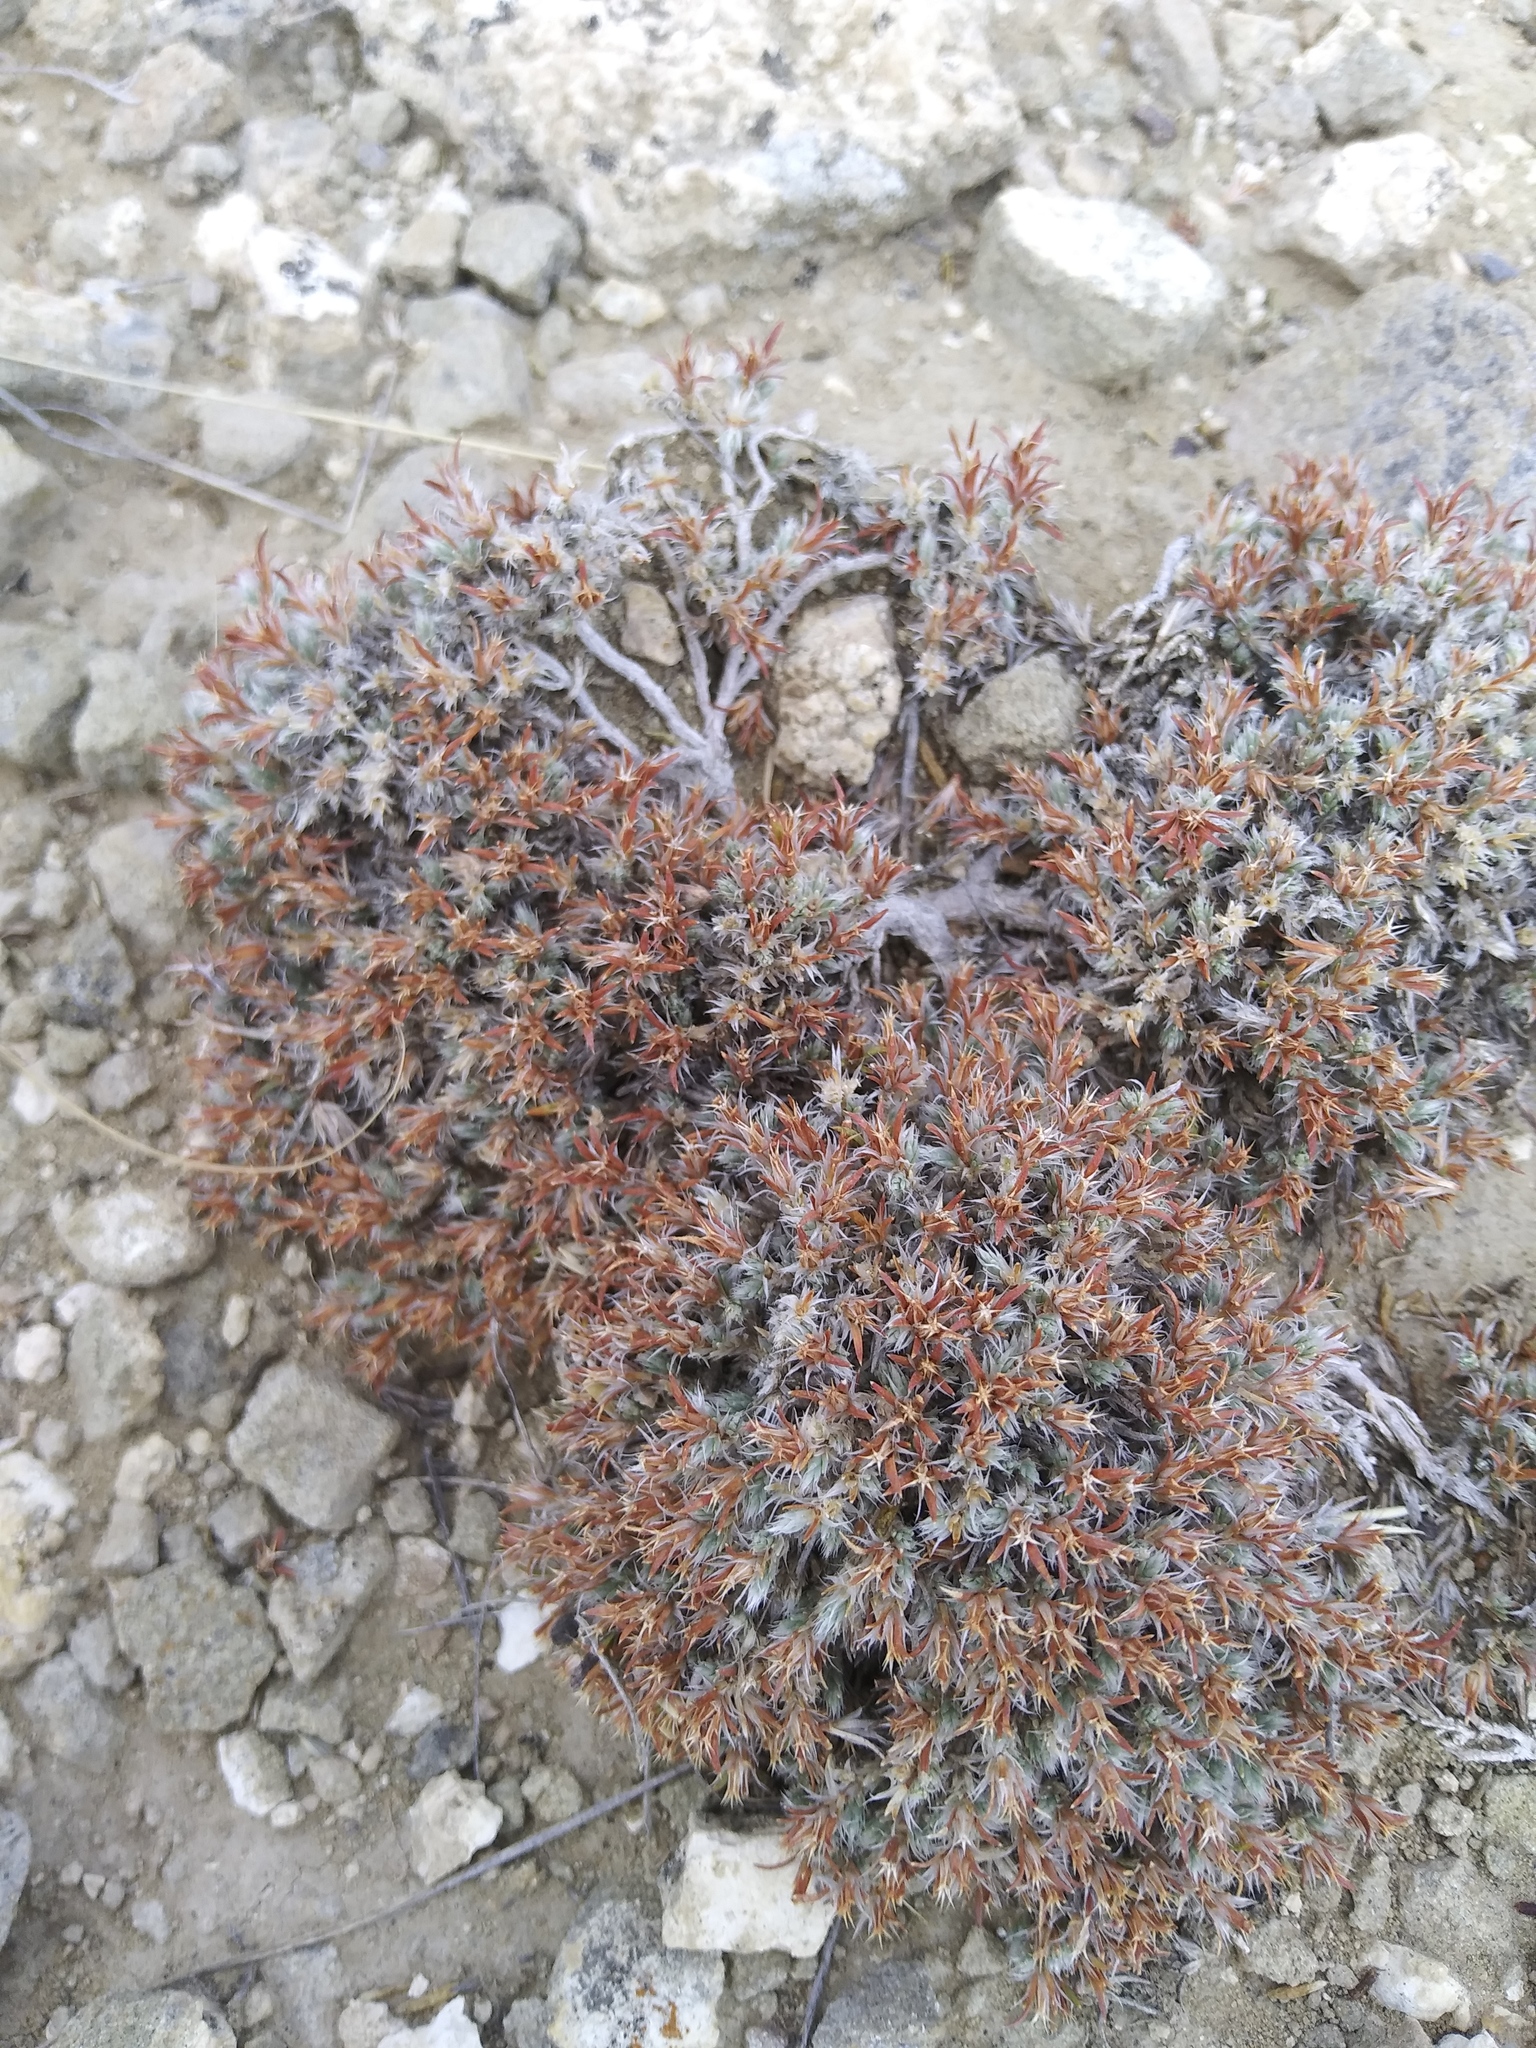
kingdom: Plantae
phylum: Tracheophyta
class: Magnoliopsida
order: Caryophyllales
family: Caryophyllaceae
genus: Paronychia
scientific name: Paronychia sessiliflora
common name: Creeping nailwort
